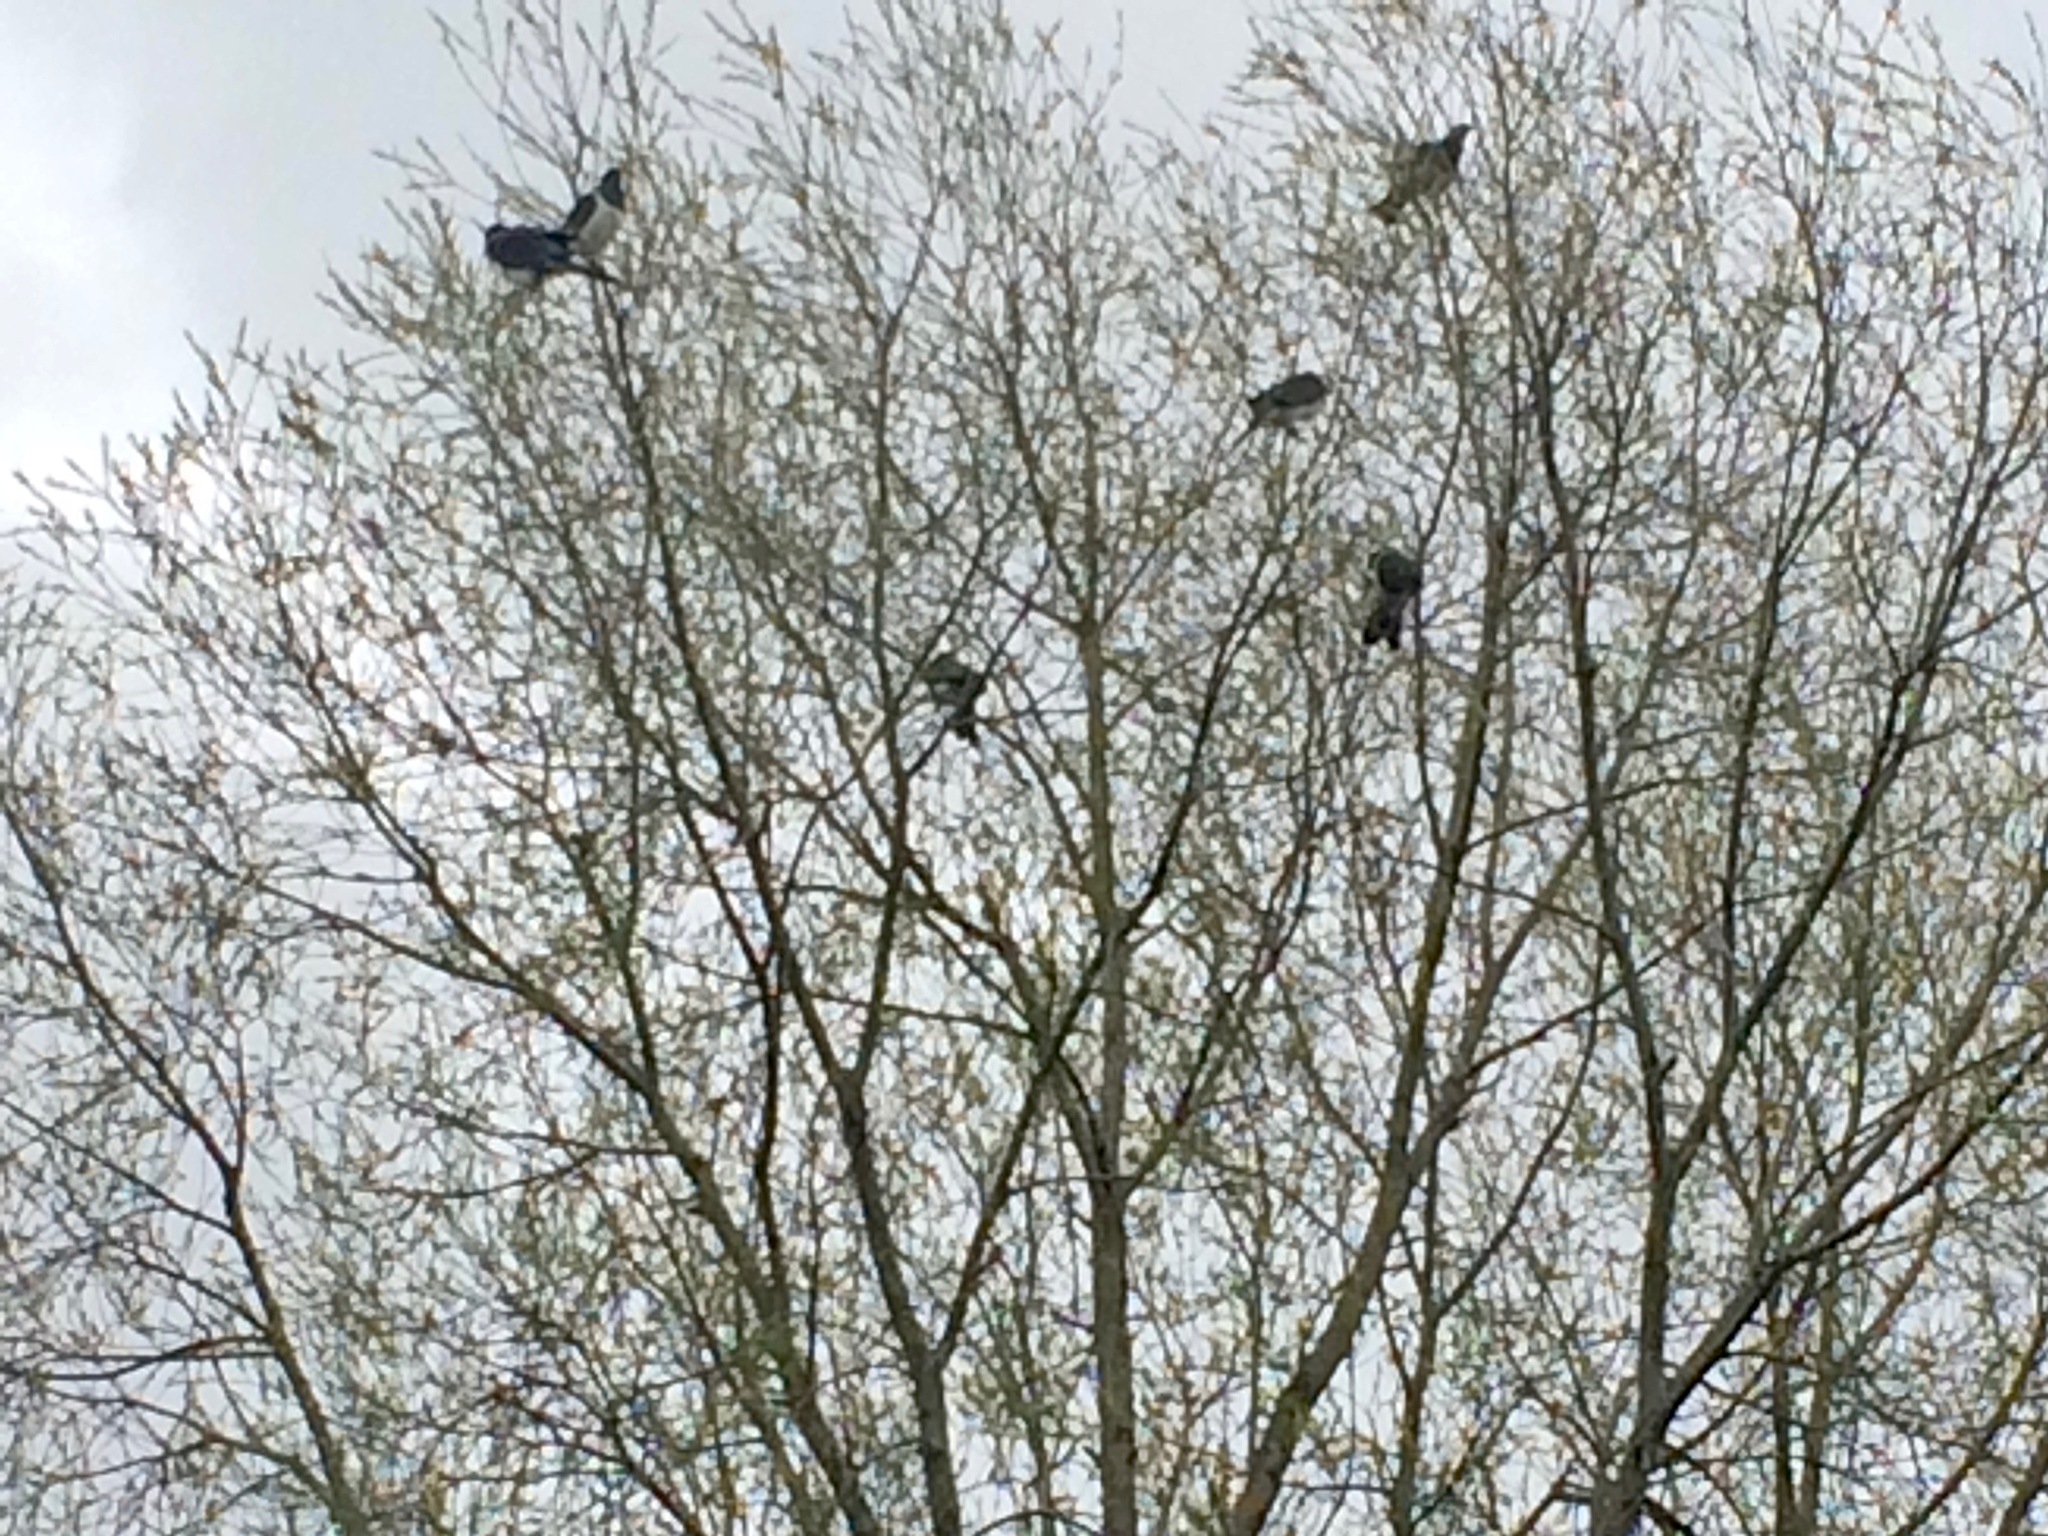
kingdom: Animalia
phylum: Chordata
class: Aves
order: Columbiformes
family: Columbidae
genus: Hemiphaga
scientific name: Hemiphaga novaeseelandiae
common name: New zealand pigeon
